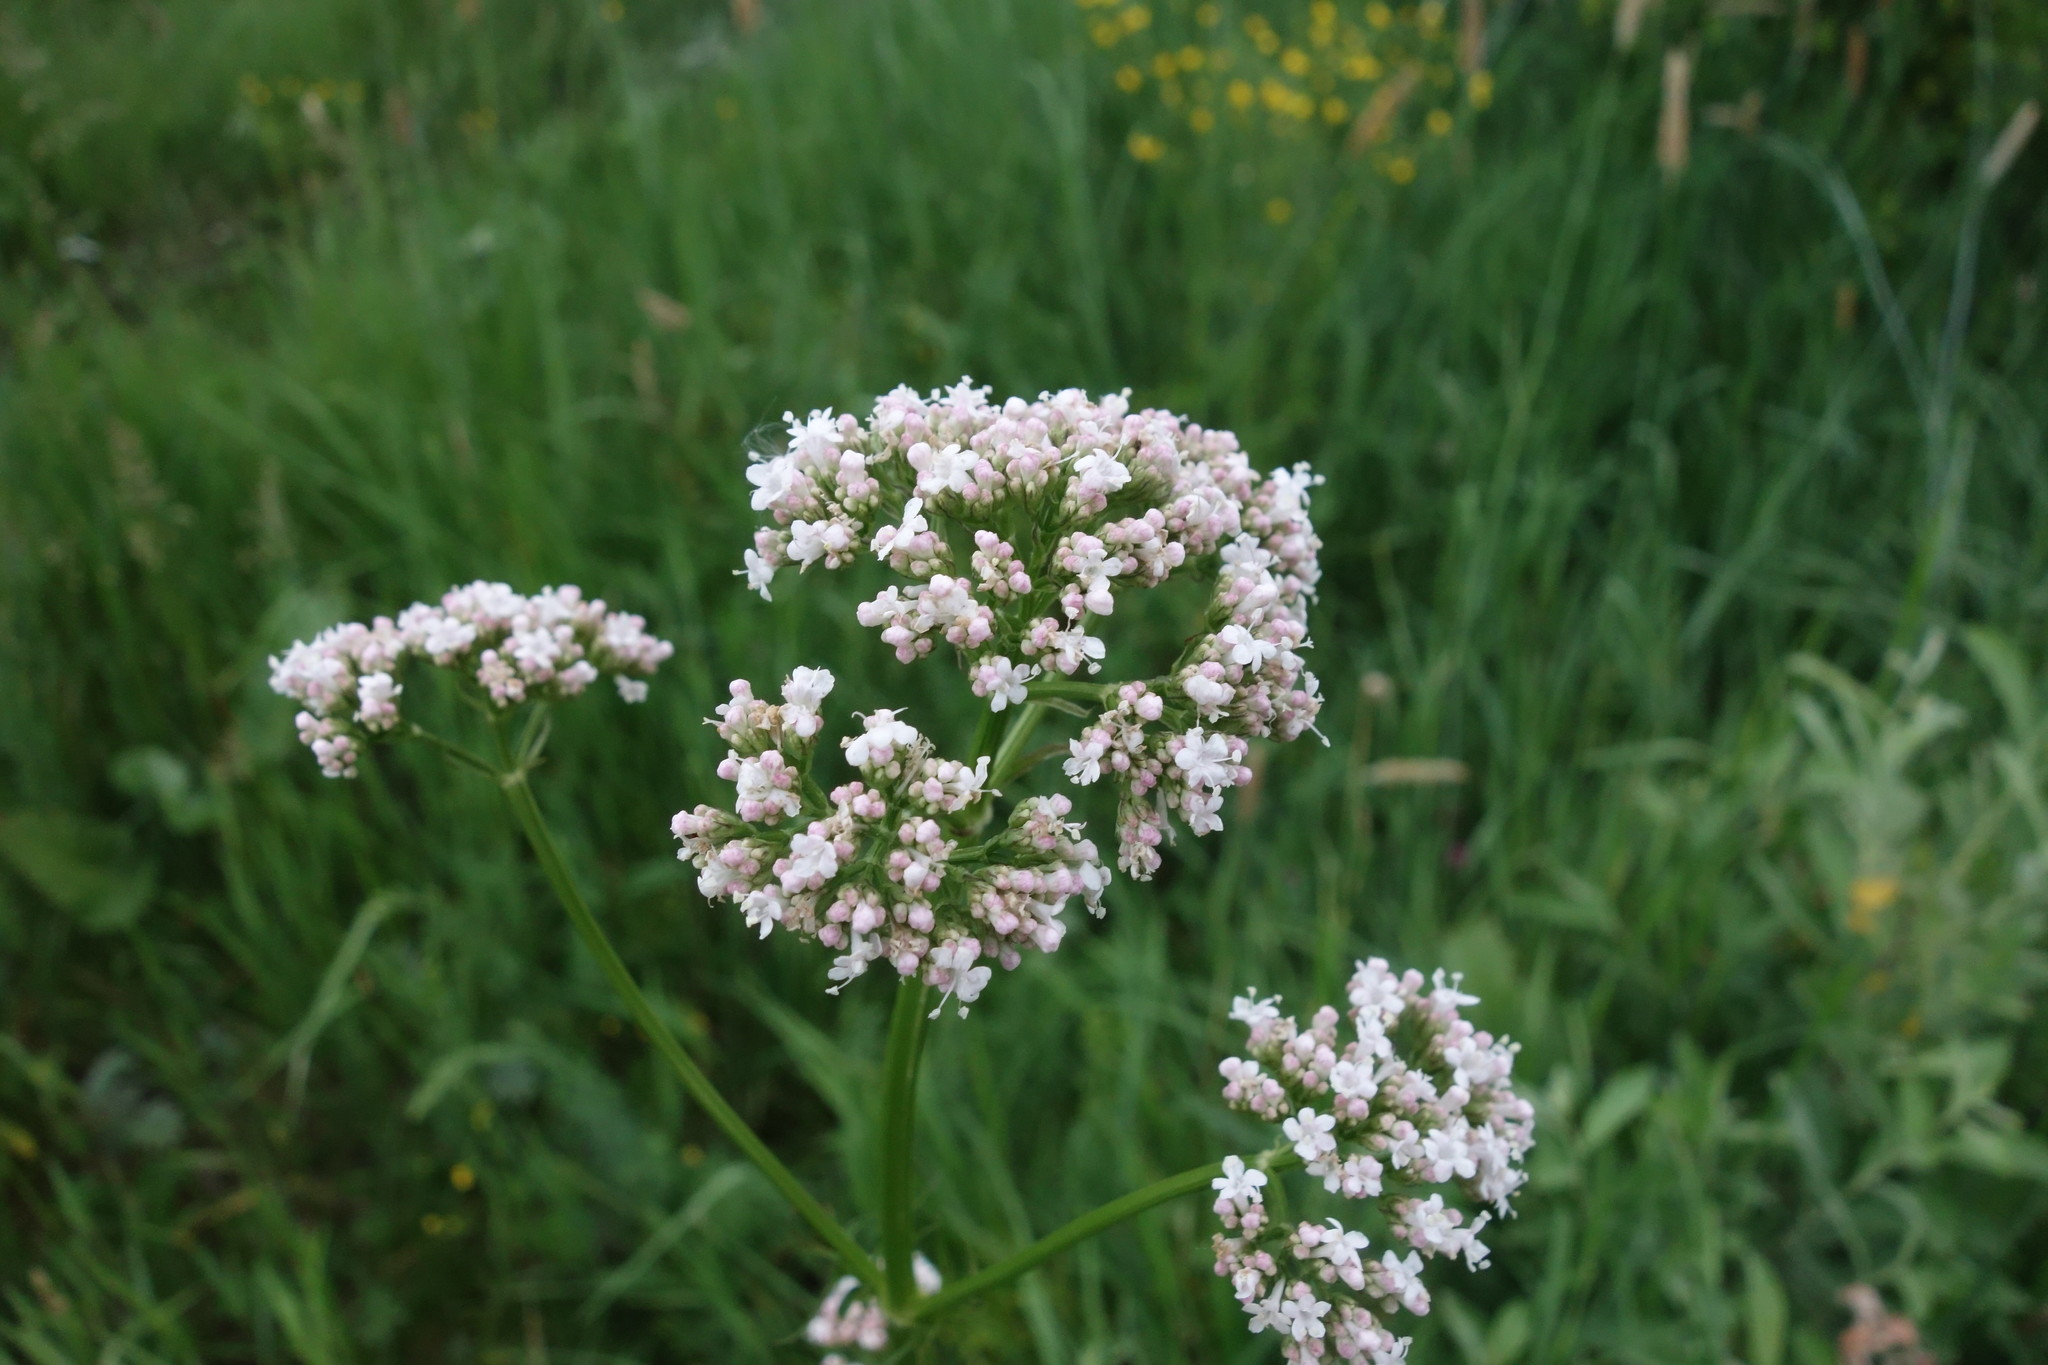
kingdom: Plantae
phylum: Tracheophyta
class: Magnoliopsida
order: Dipsacales
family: Caprifoliaceae
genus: Valeriana
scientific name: Valeriana officinalis
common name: Common valerian
